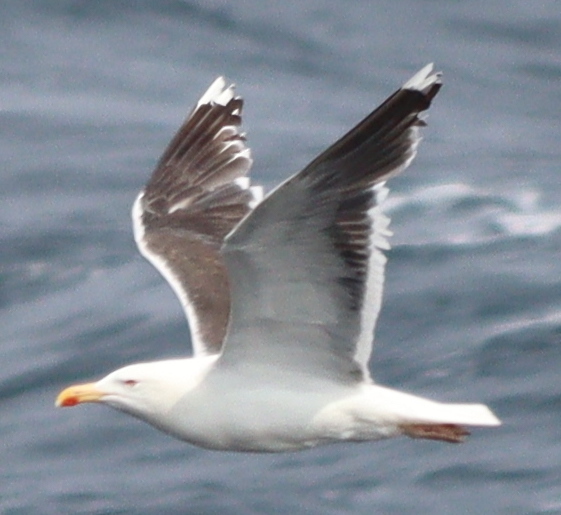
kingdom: Animalia
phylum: Chordata
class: Aves
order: Charadriiformes
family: Laridae
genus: Larus
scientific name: Larus marinus
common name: Great black-backed gull
